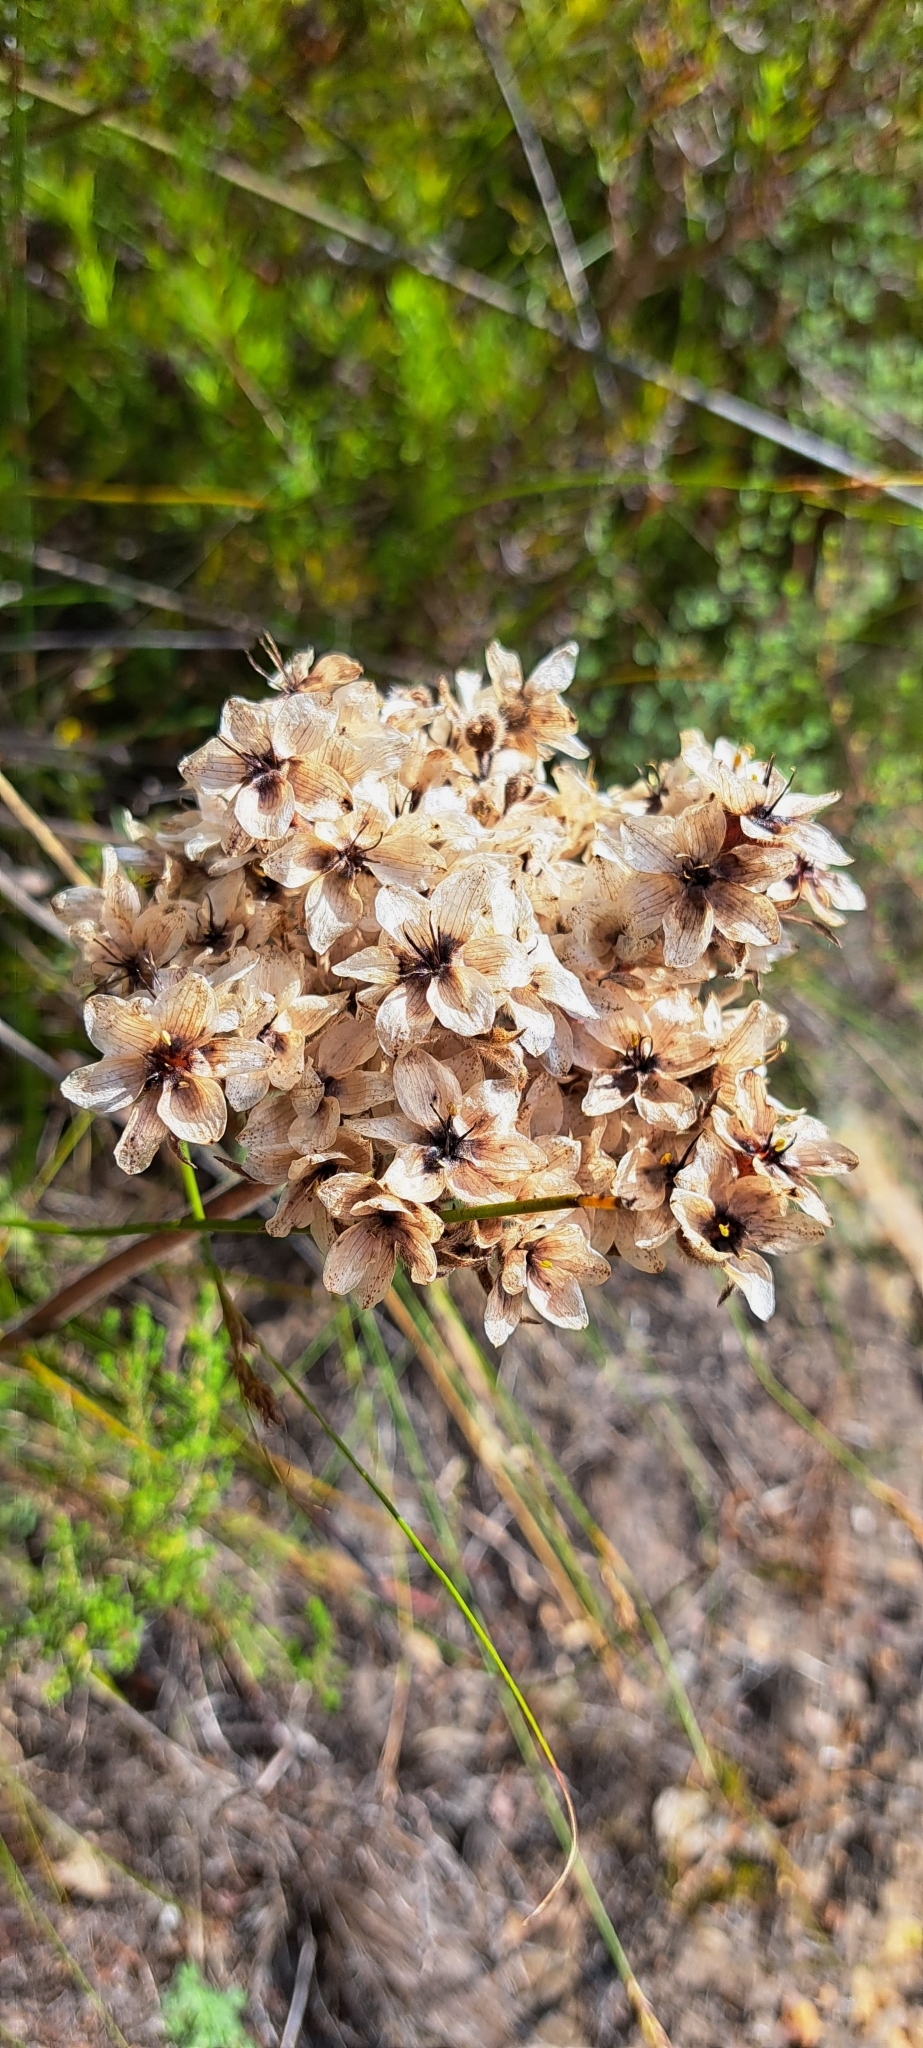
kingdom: Plantae
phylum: Tracheophyta
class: Liliopsida
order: Commelinales
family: Haemodoraceae
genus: Dilatris
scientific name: Dilatris pillansii
